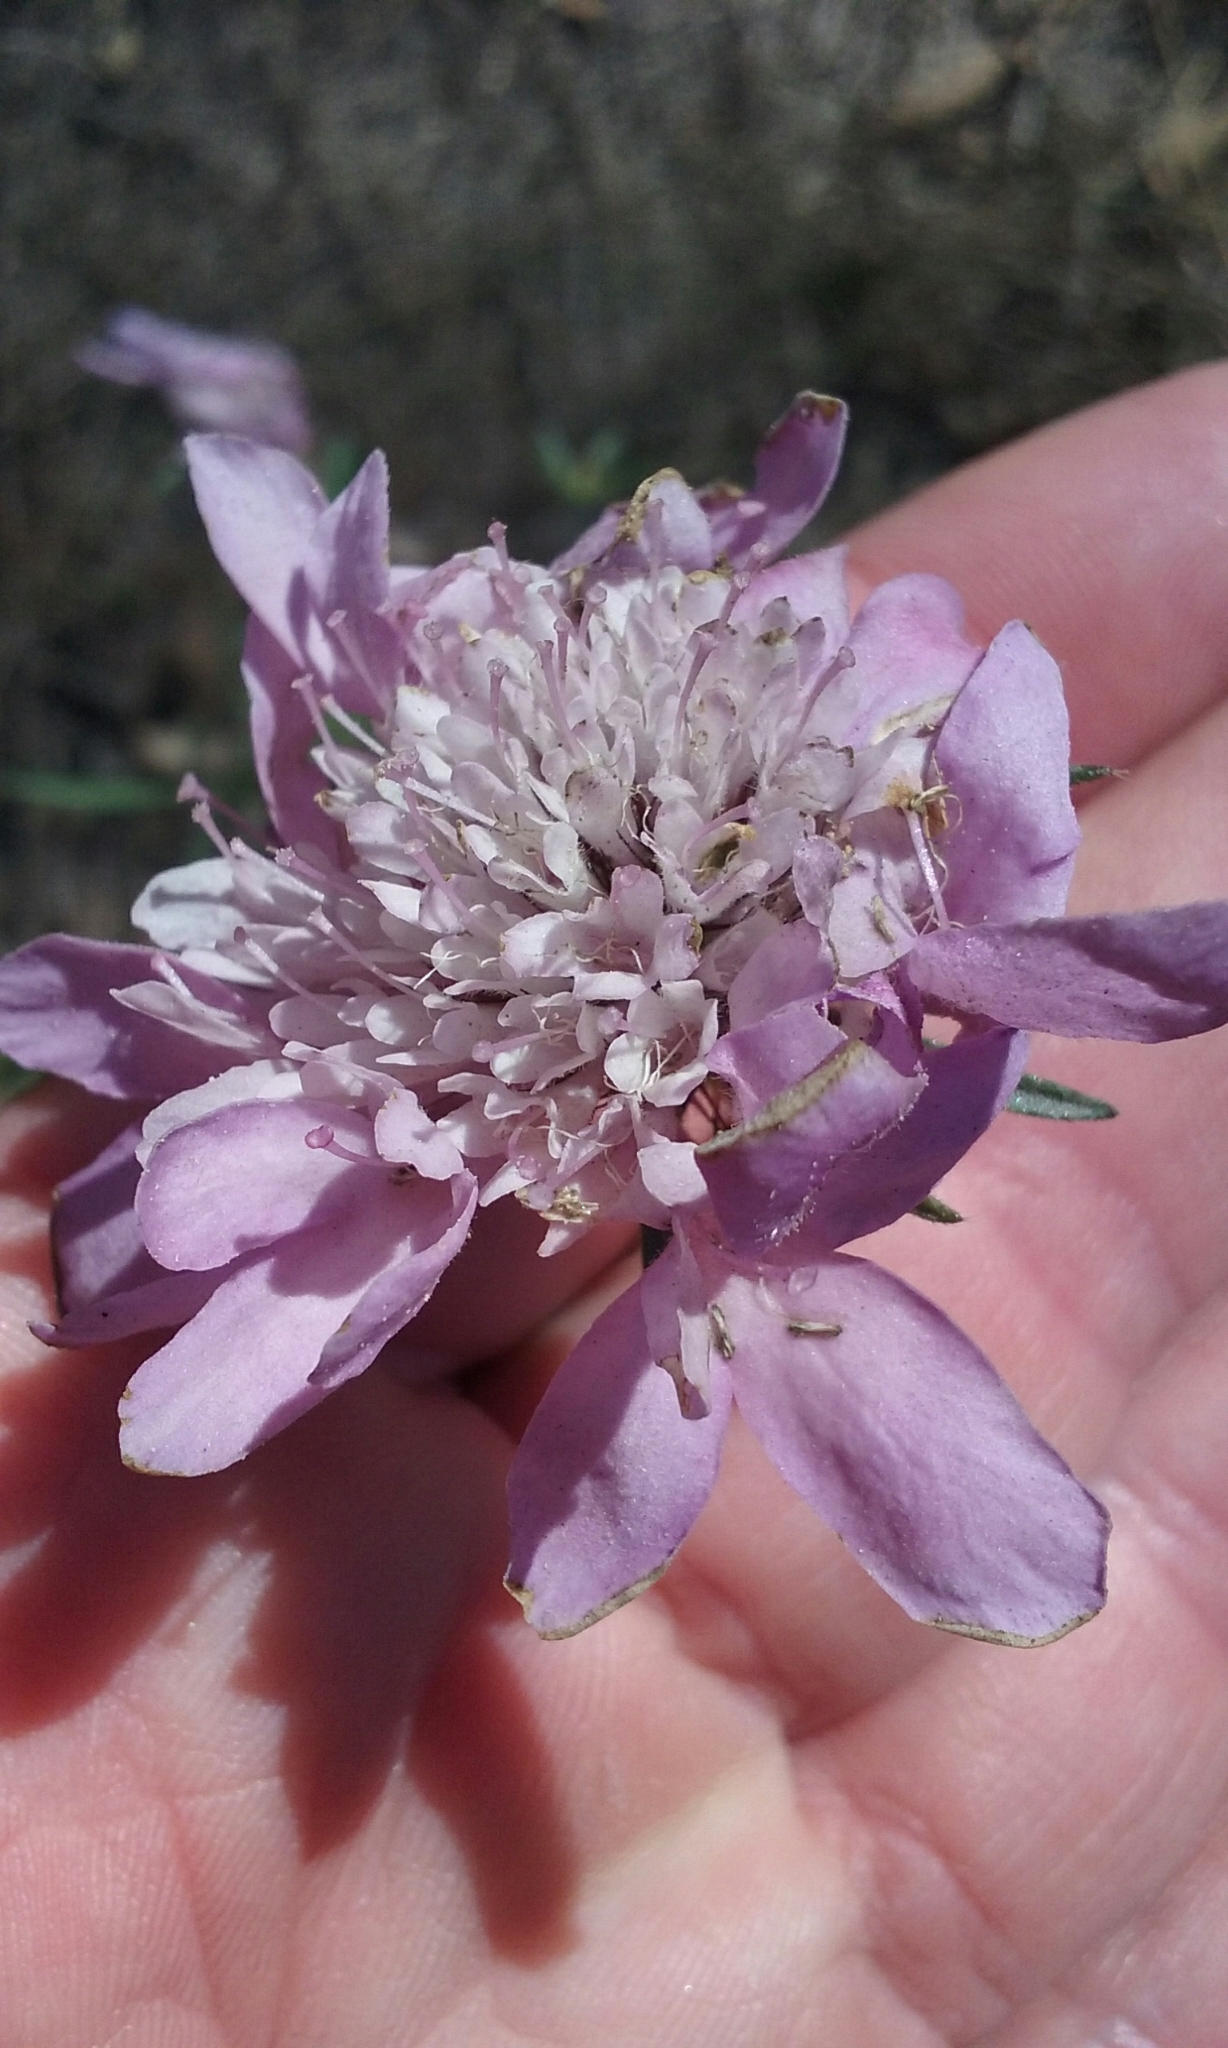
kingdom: Plantae
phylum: Tracheophyta
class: Magnoliopsida
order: Dipsacales
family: Caprifoliaceae
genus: Sixalix
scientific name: Sixalix atropurpurea
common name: Sweet scabious
